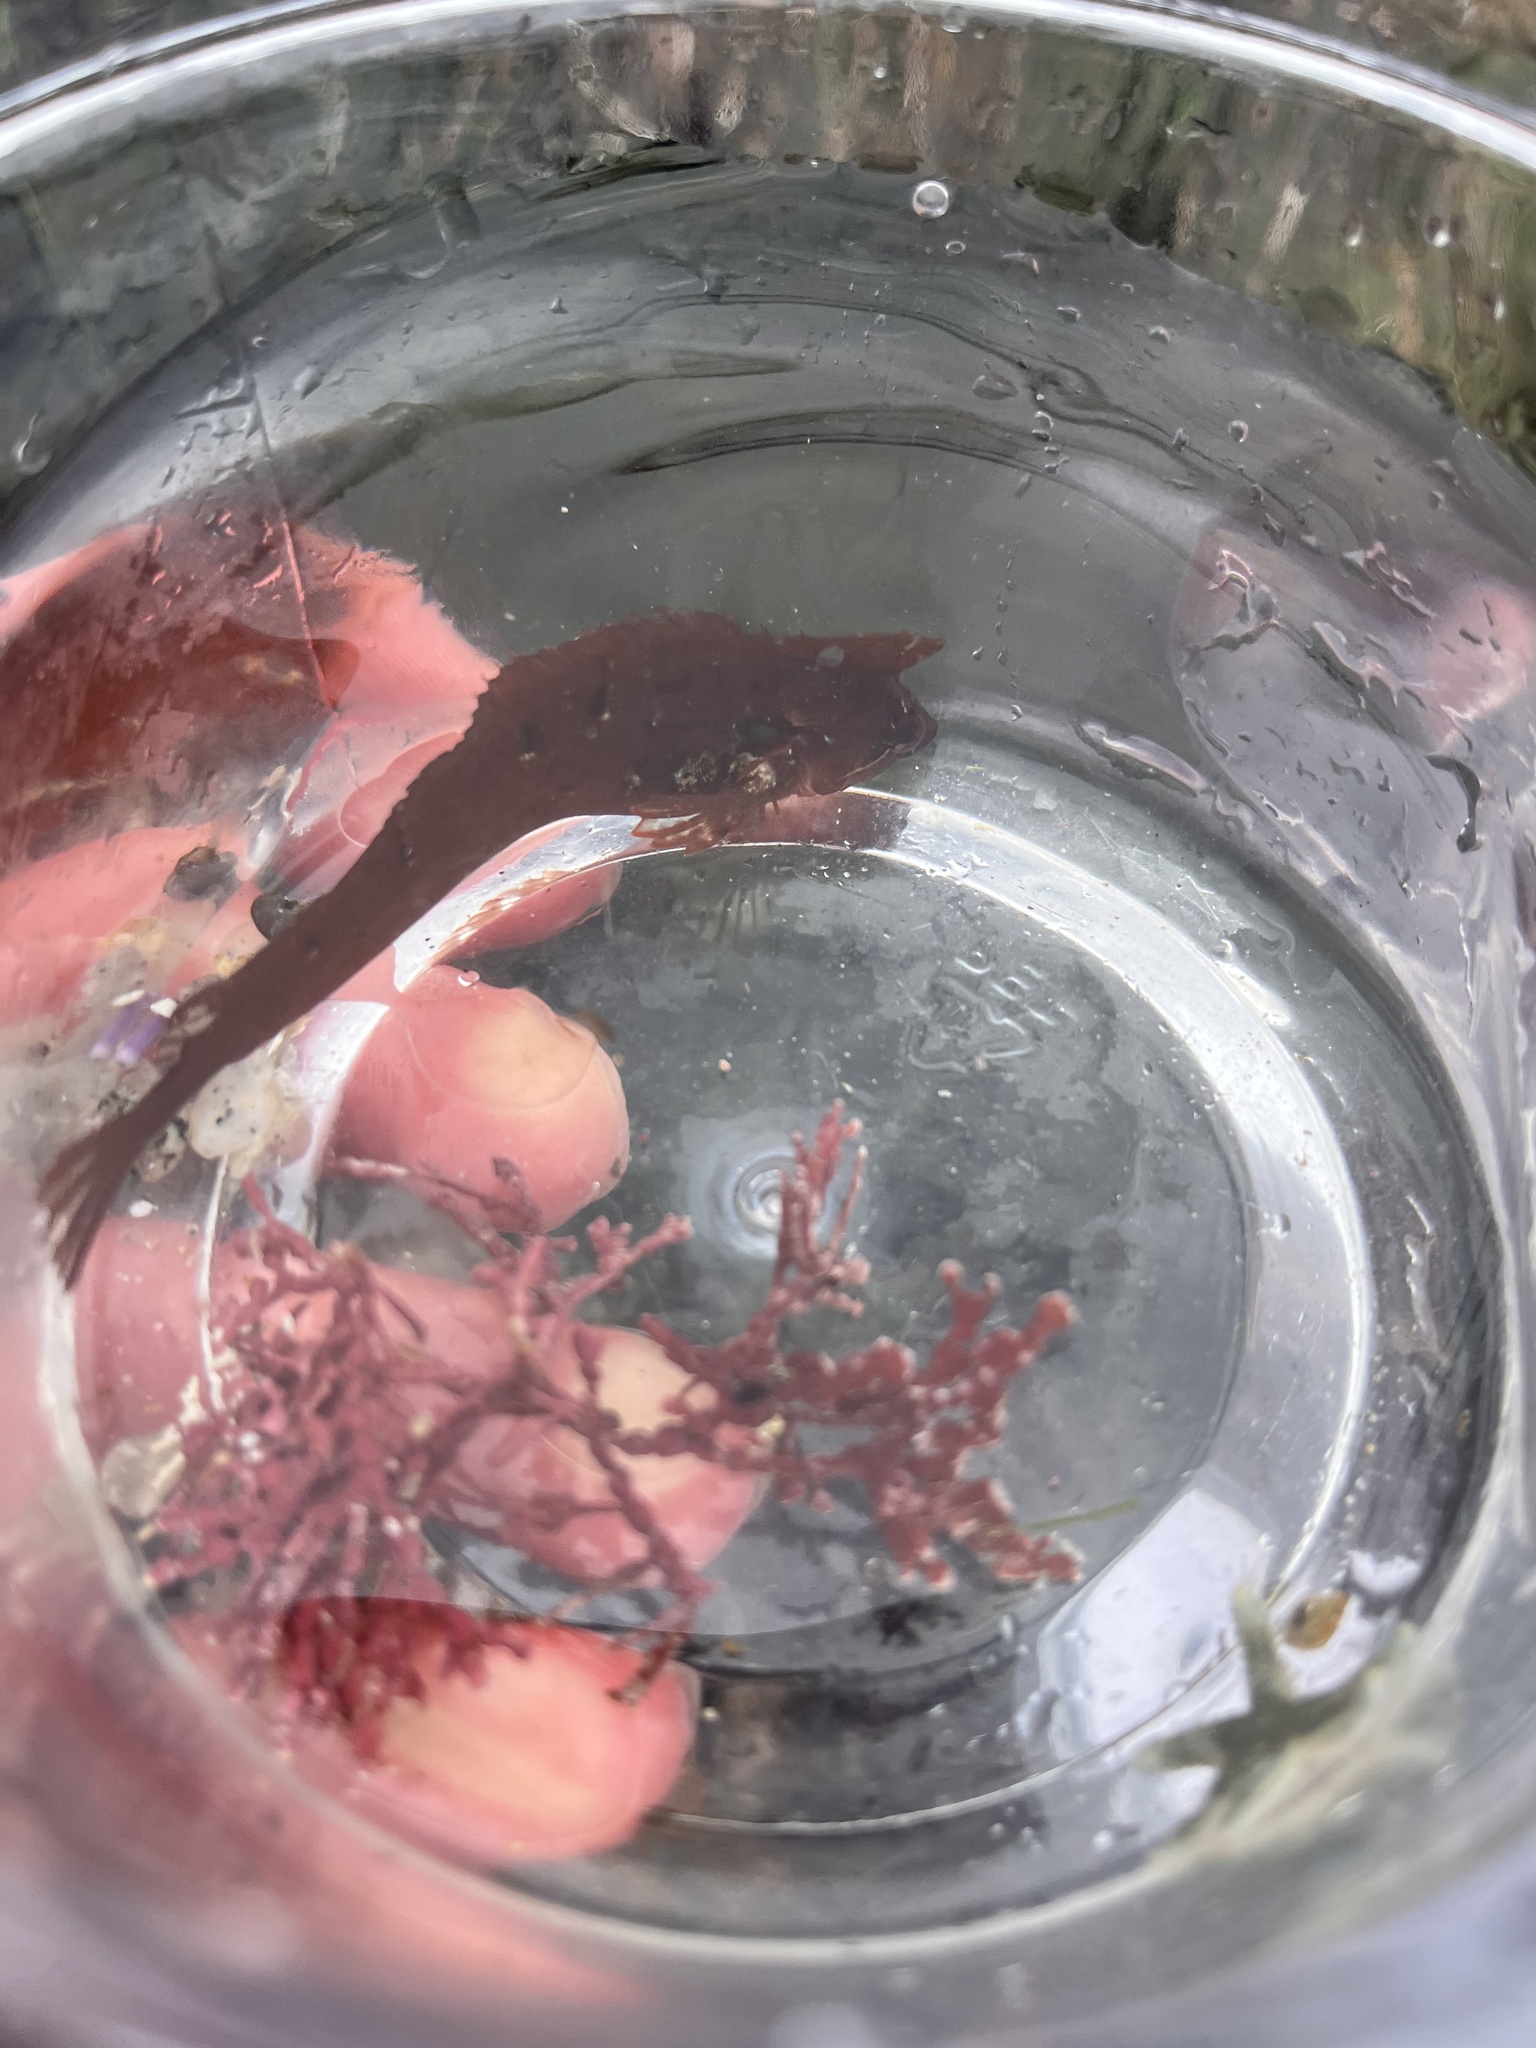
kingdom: Animalia
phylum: Chordata
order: Perciformes
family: Clinidae
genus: Gibbonsia
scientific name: Gibbonsia montereyensis
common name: Crevice kelpfish
